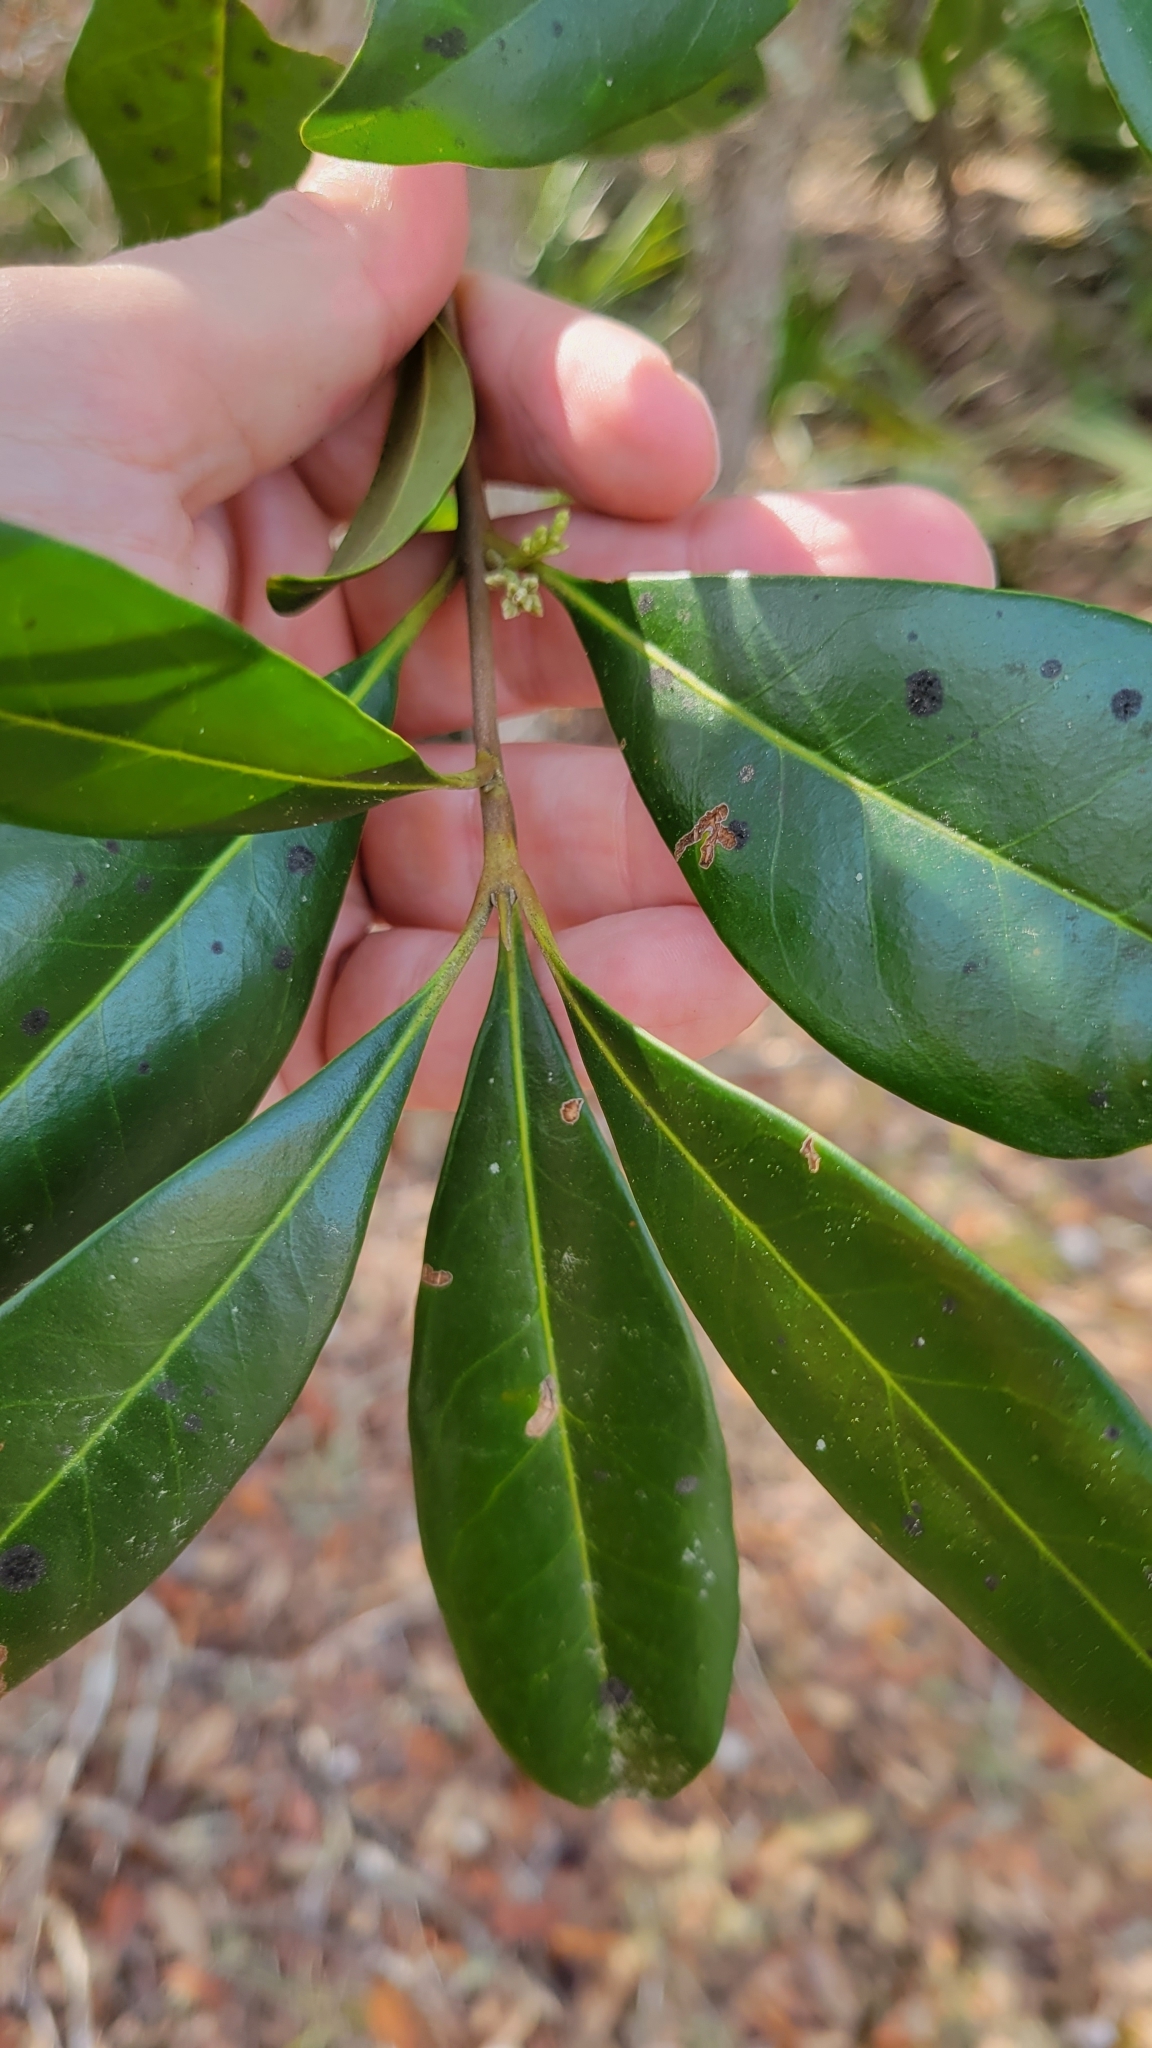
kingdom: Plantae
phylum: Tracheophyta
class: Magnoliopsida
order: Lamiales
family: Oleaceae
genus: Cartrema
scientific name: Cartrema americana
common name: Devilwood
